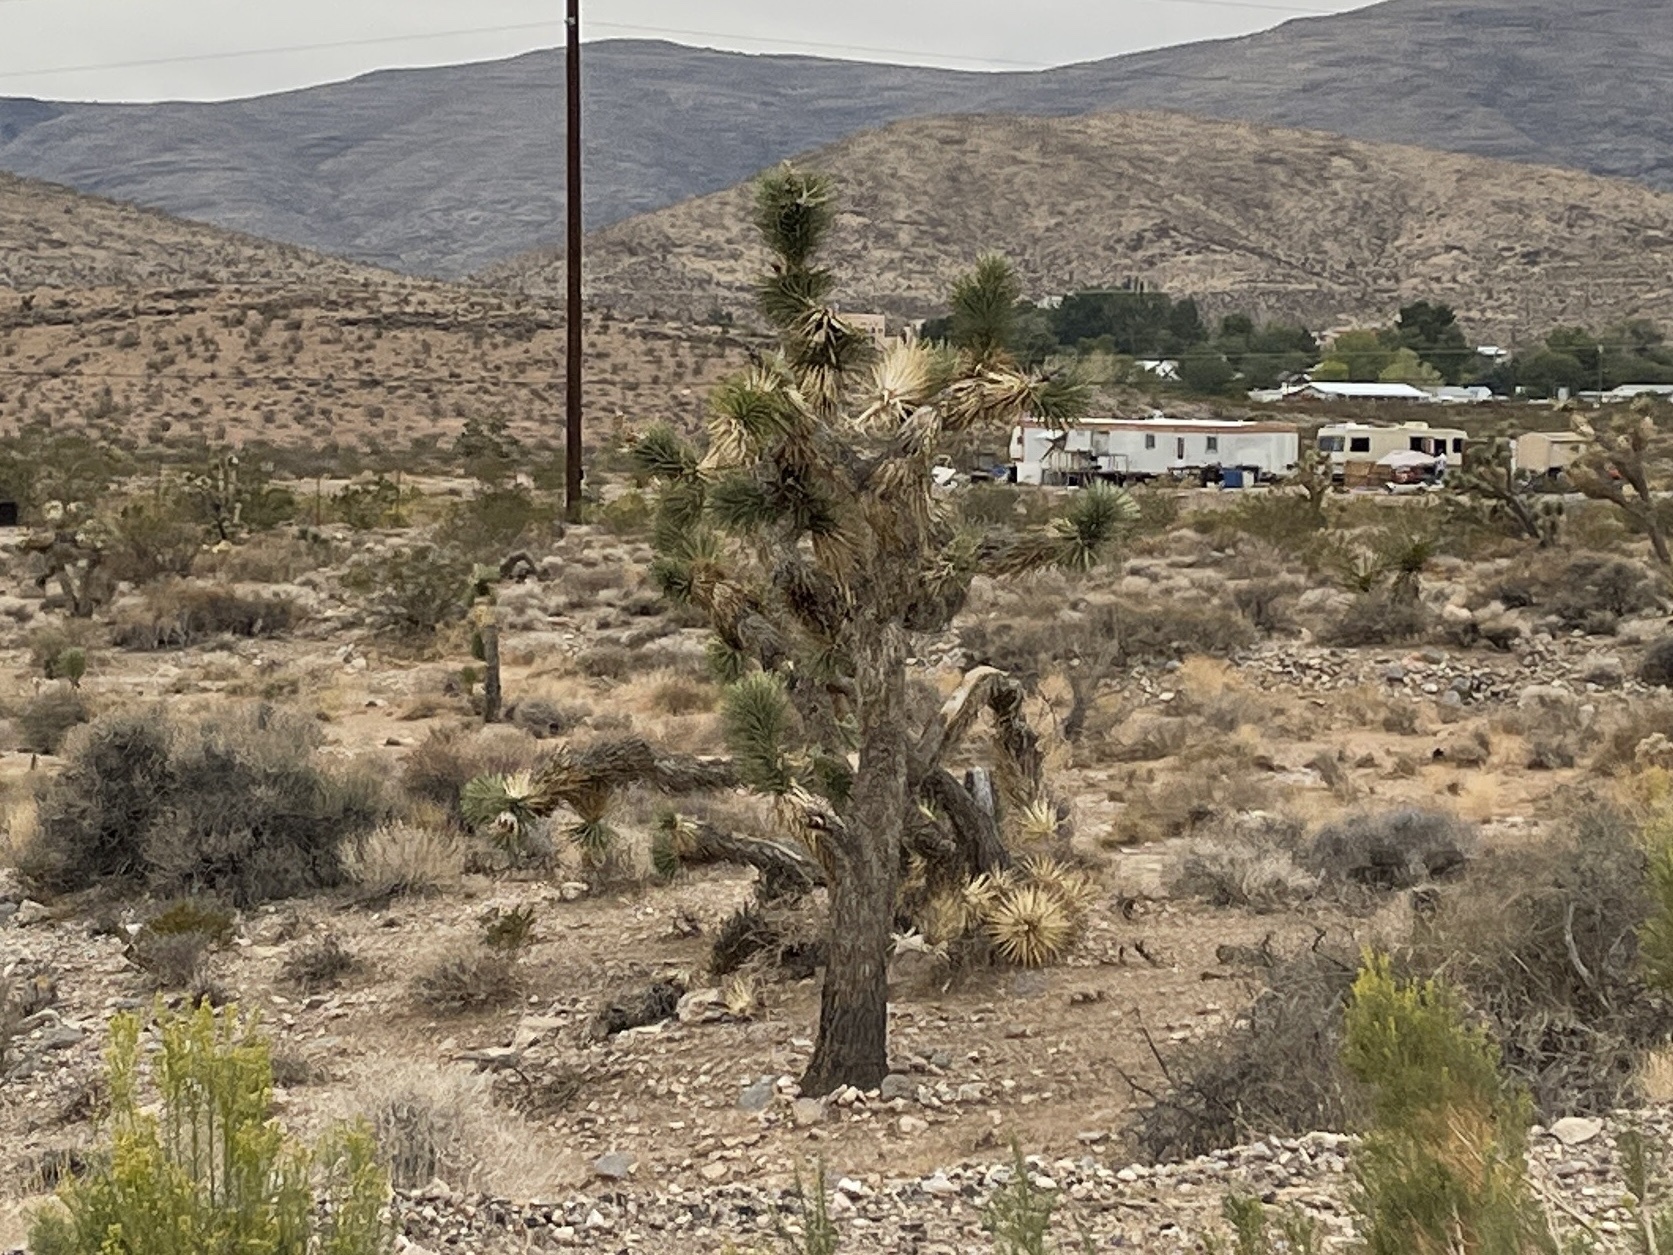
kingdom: Plantae
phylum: Tracheophyta
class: Liliopsida
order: Asparagales
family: Asparagaceae
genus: Yucca
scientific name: Yucca brevifolia
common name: Joshua tree
